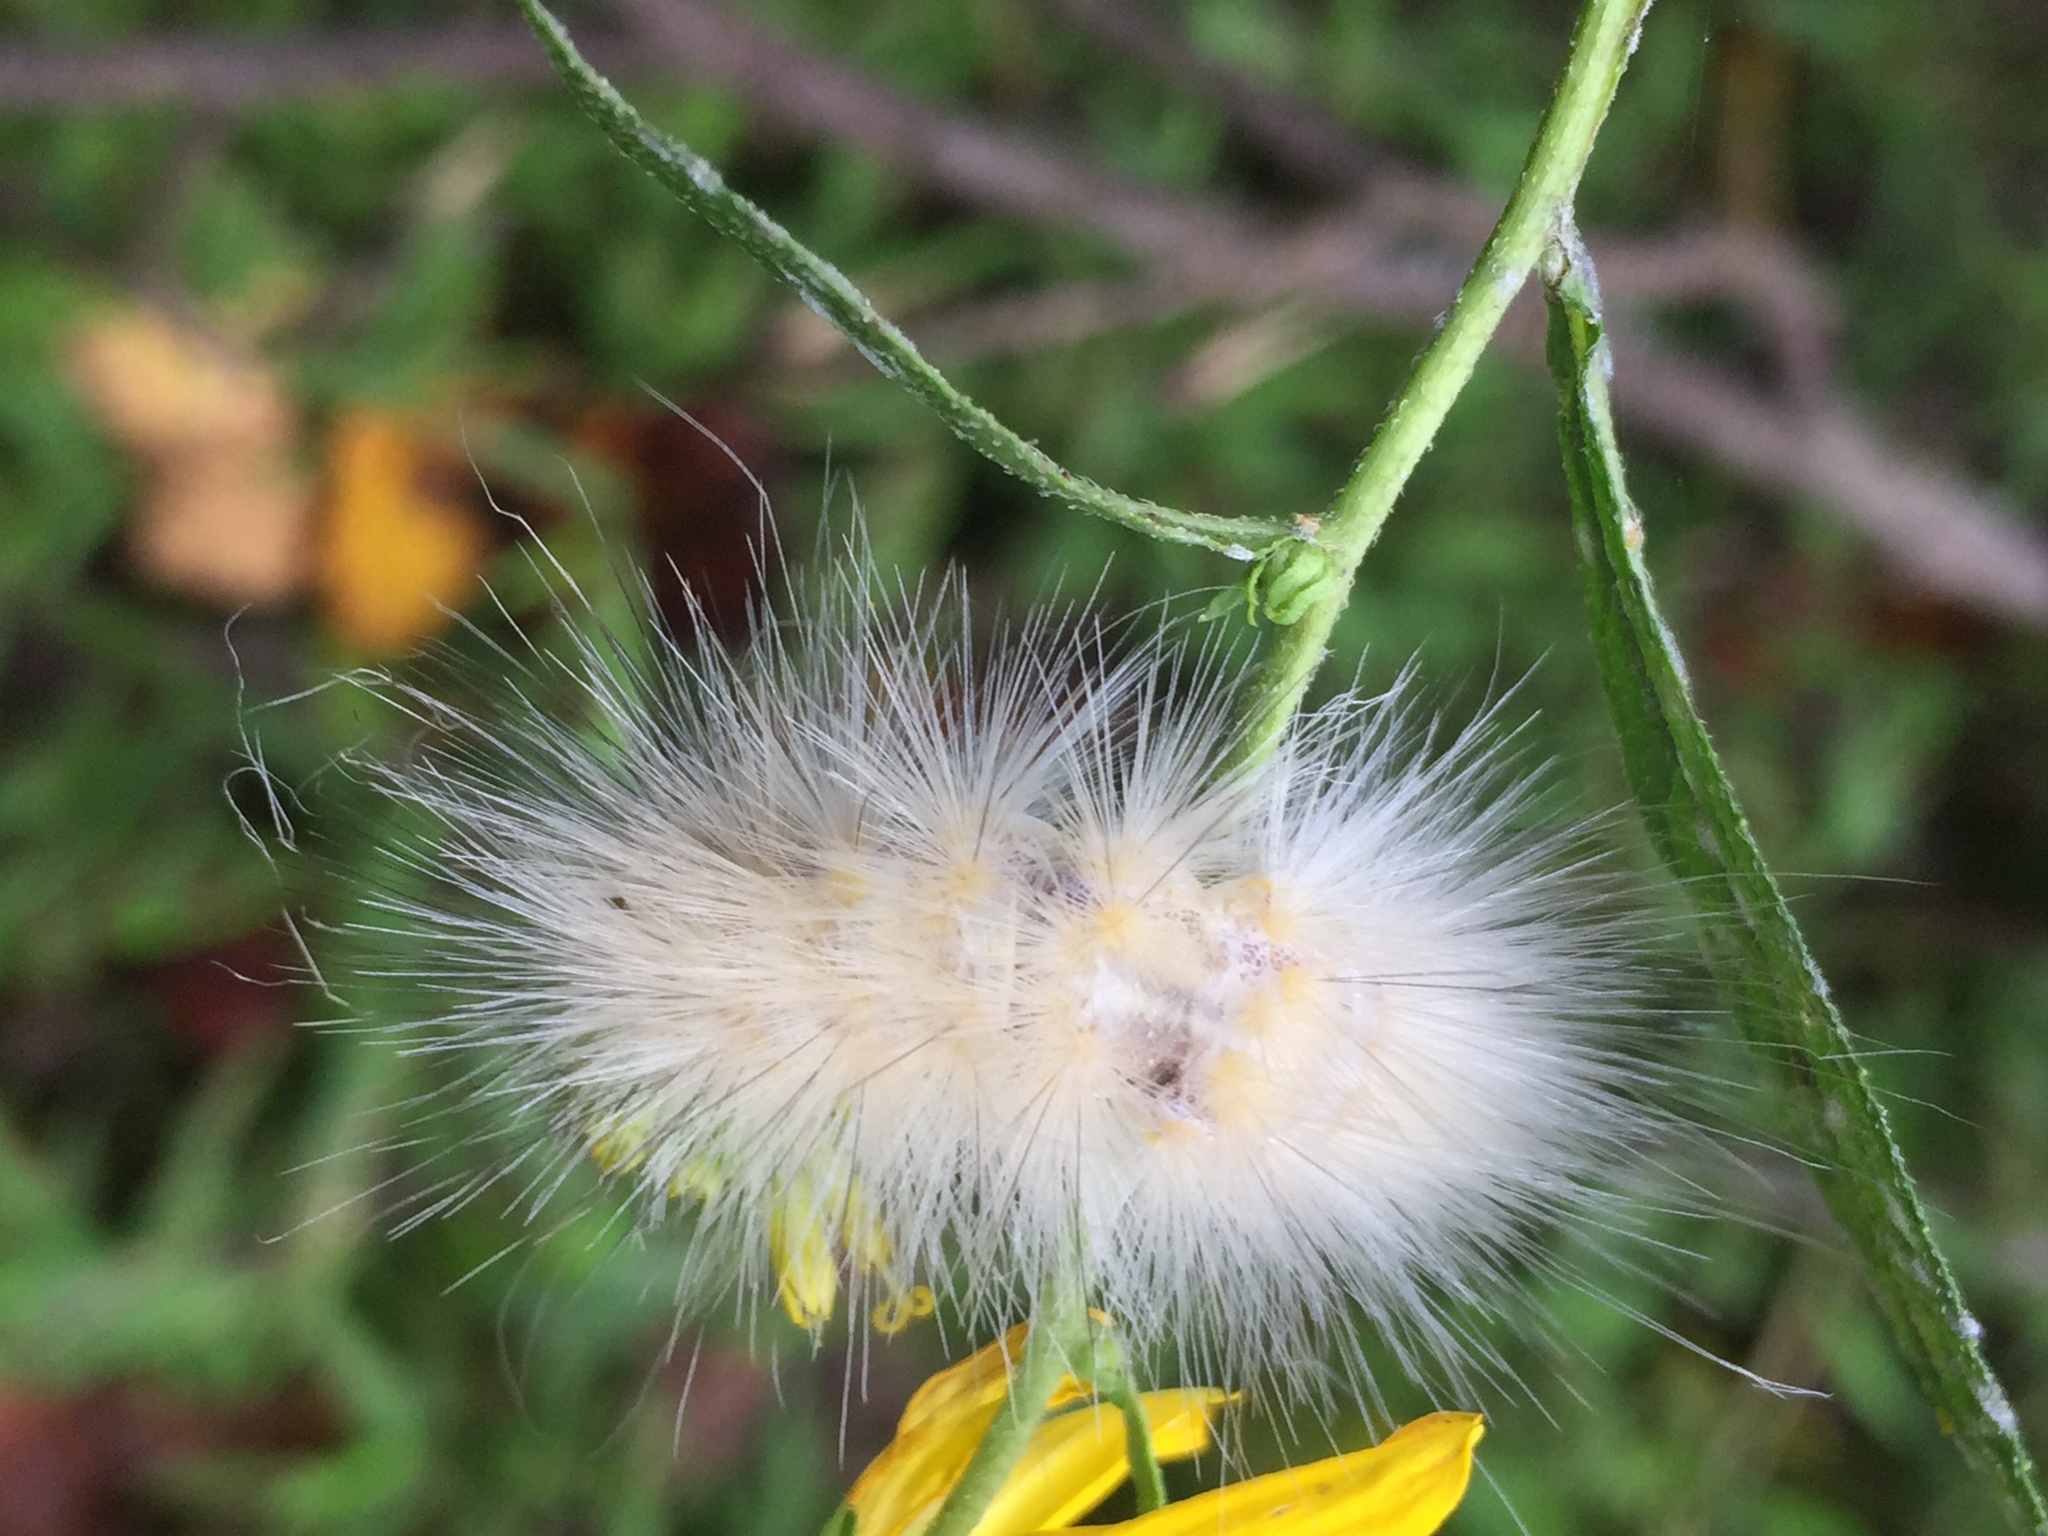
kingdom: Animalia
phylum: Arthropoda
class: Insecta
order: Lepidoptera
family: Erebidae
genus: Spilosoma
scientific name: Spilosoma virginica
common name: Virginia tiger moth
